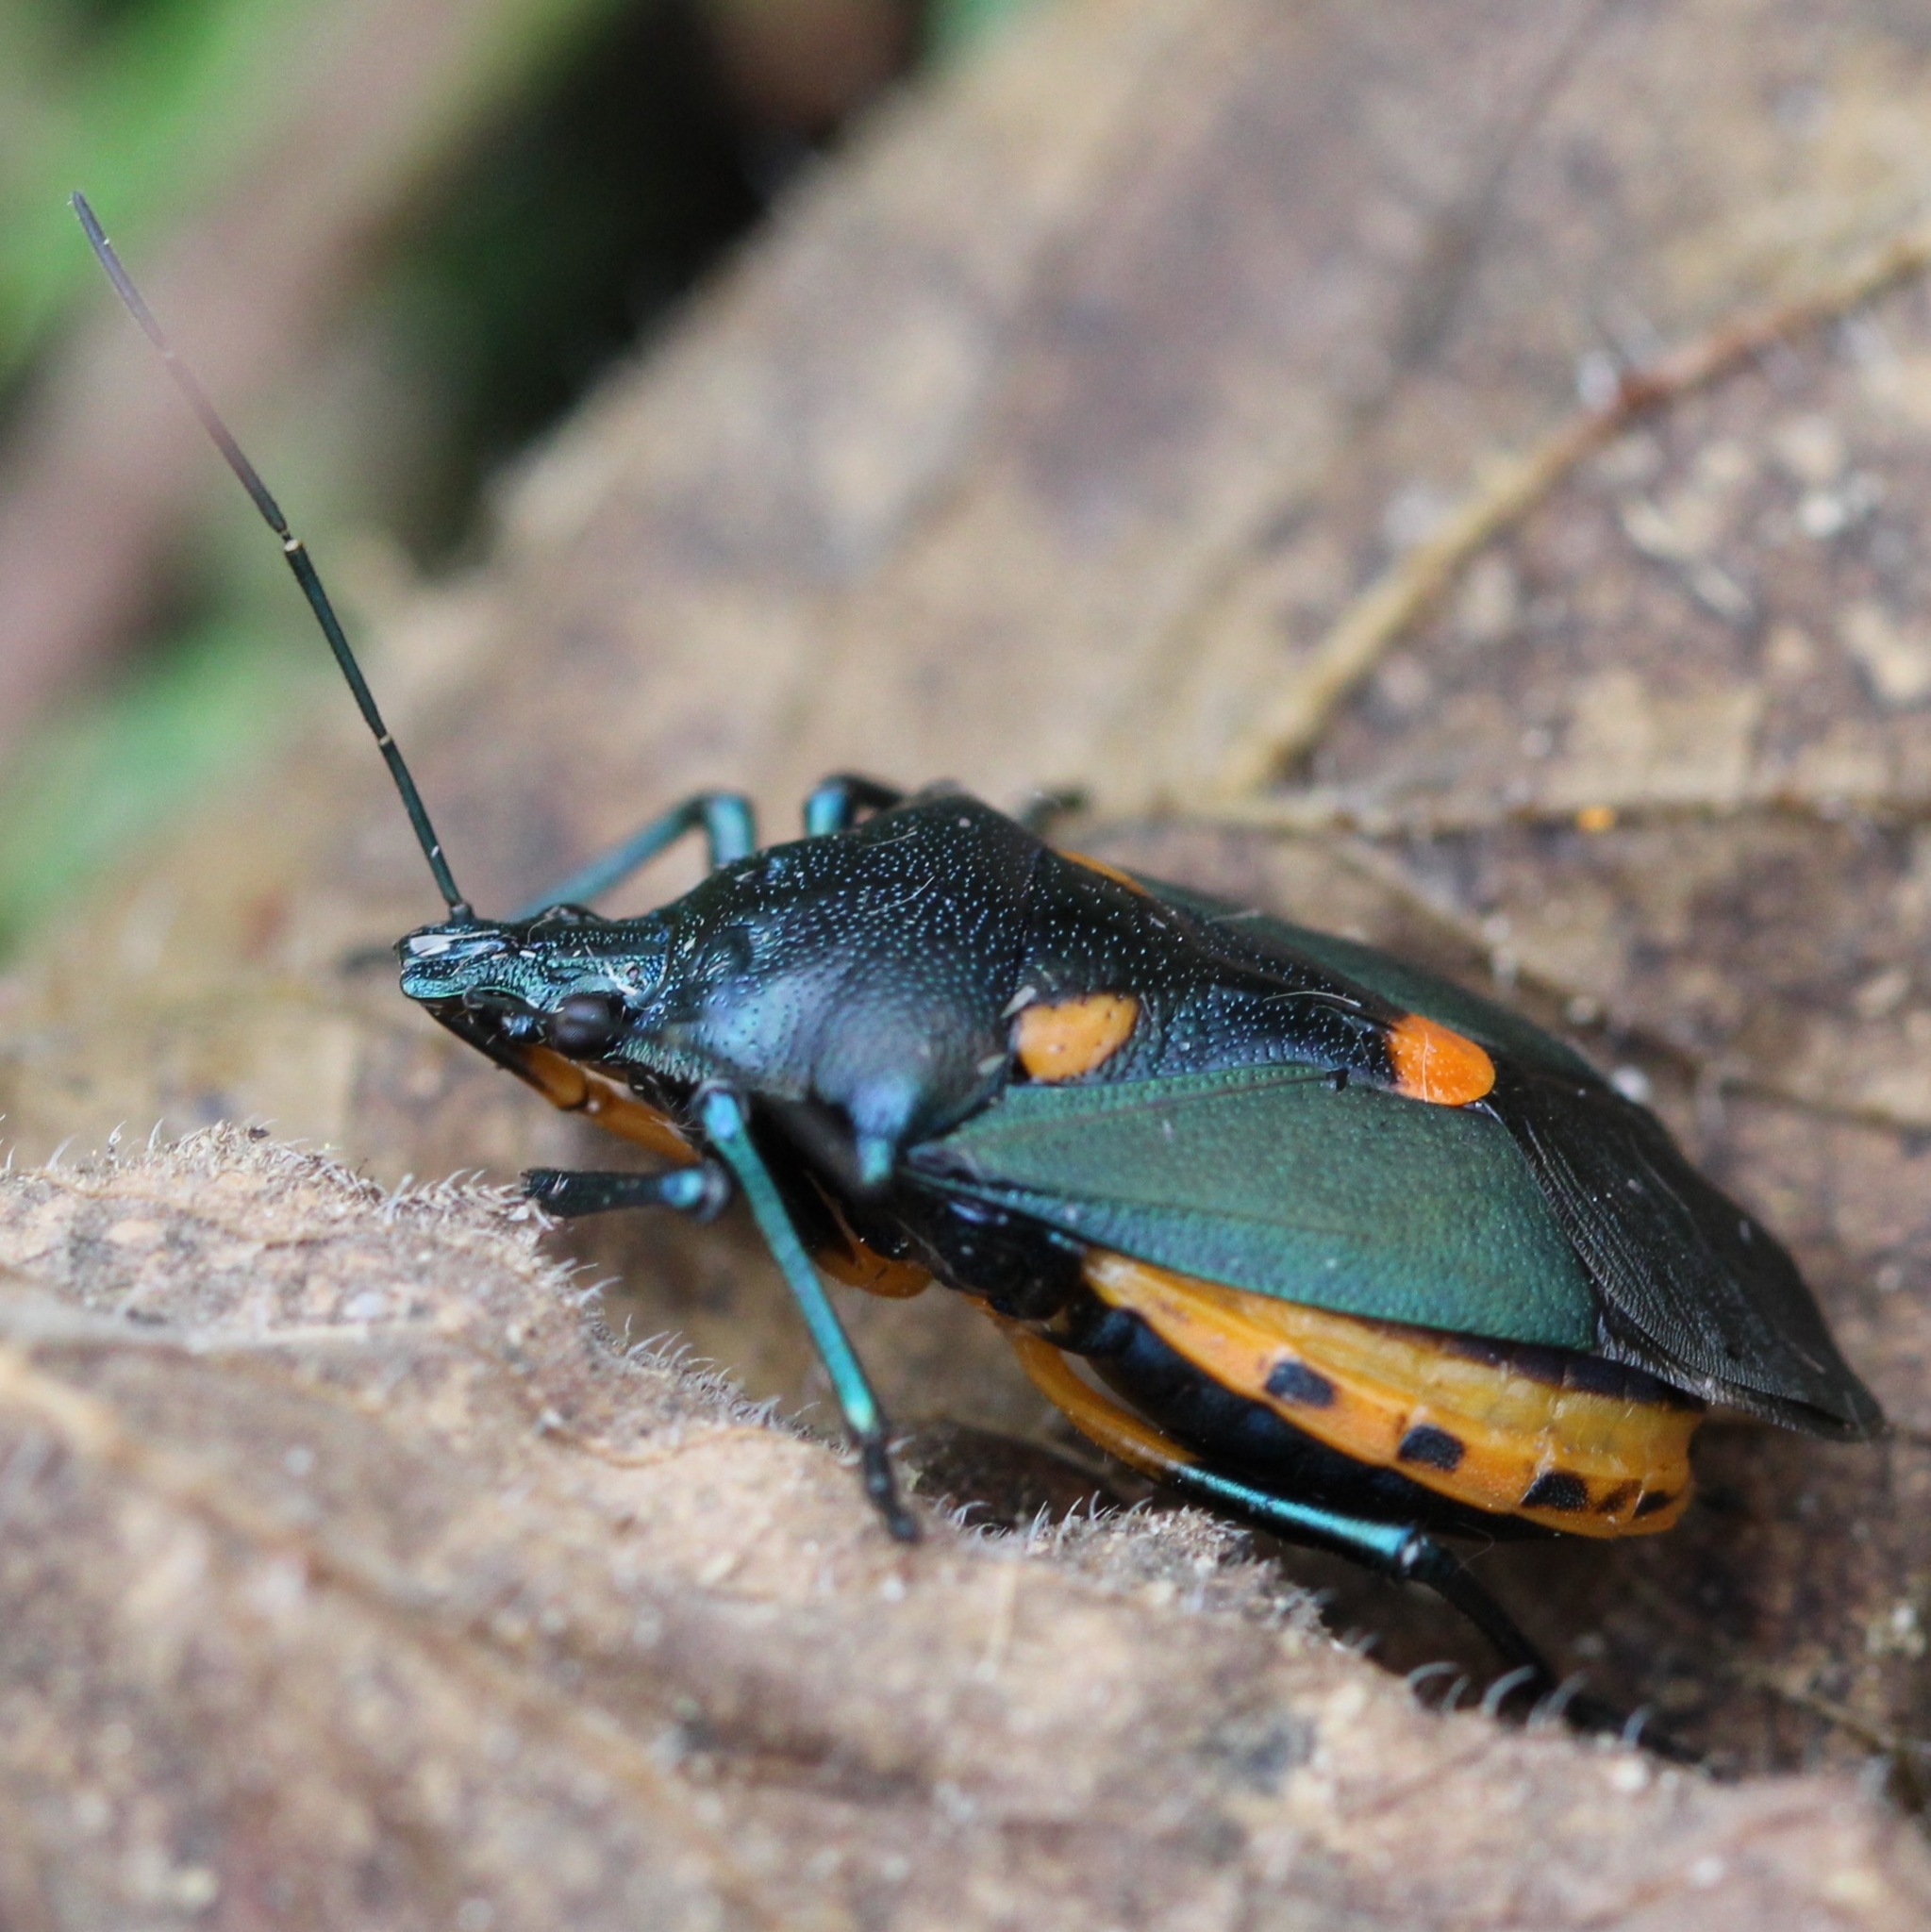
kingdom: Animalia
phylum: Arthropoda
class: Insecta
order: Hemiptera
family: Pentatomidae
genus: Euthyrhynchus
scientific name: Euthyrhynchus floridanus
